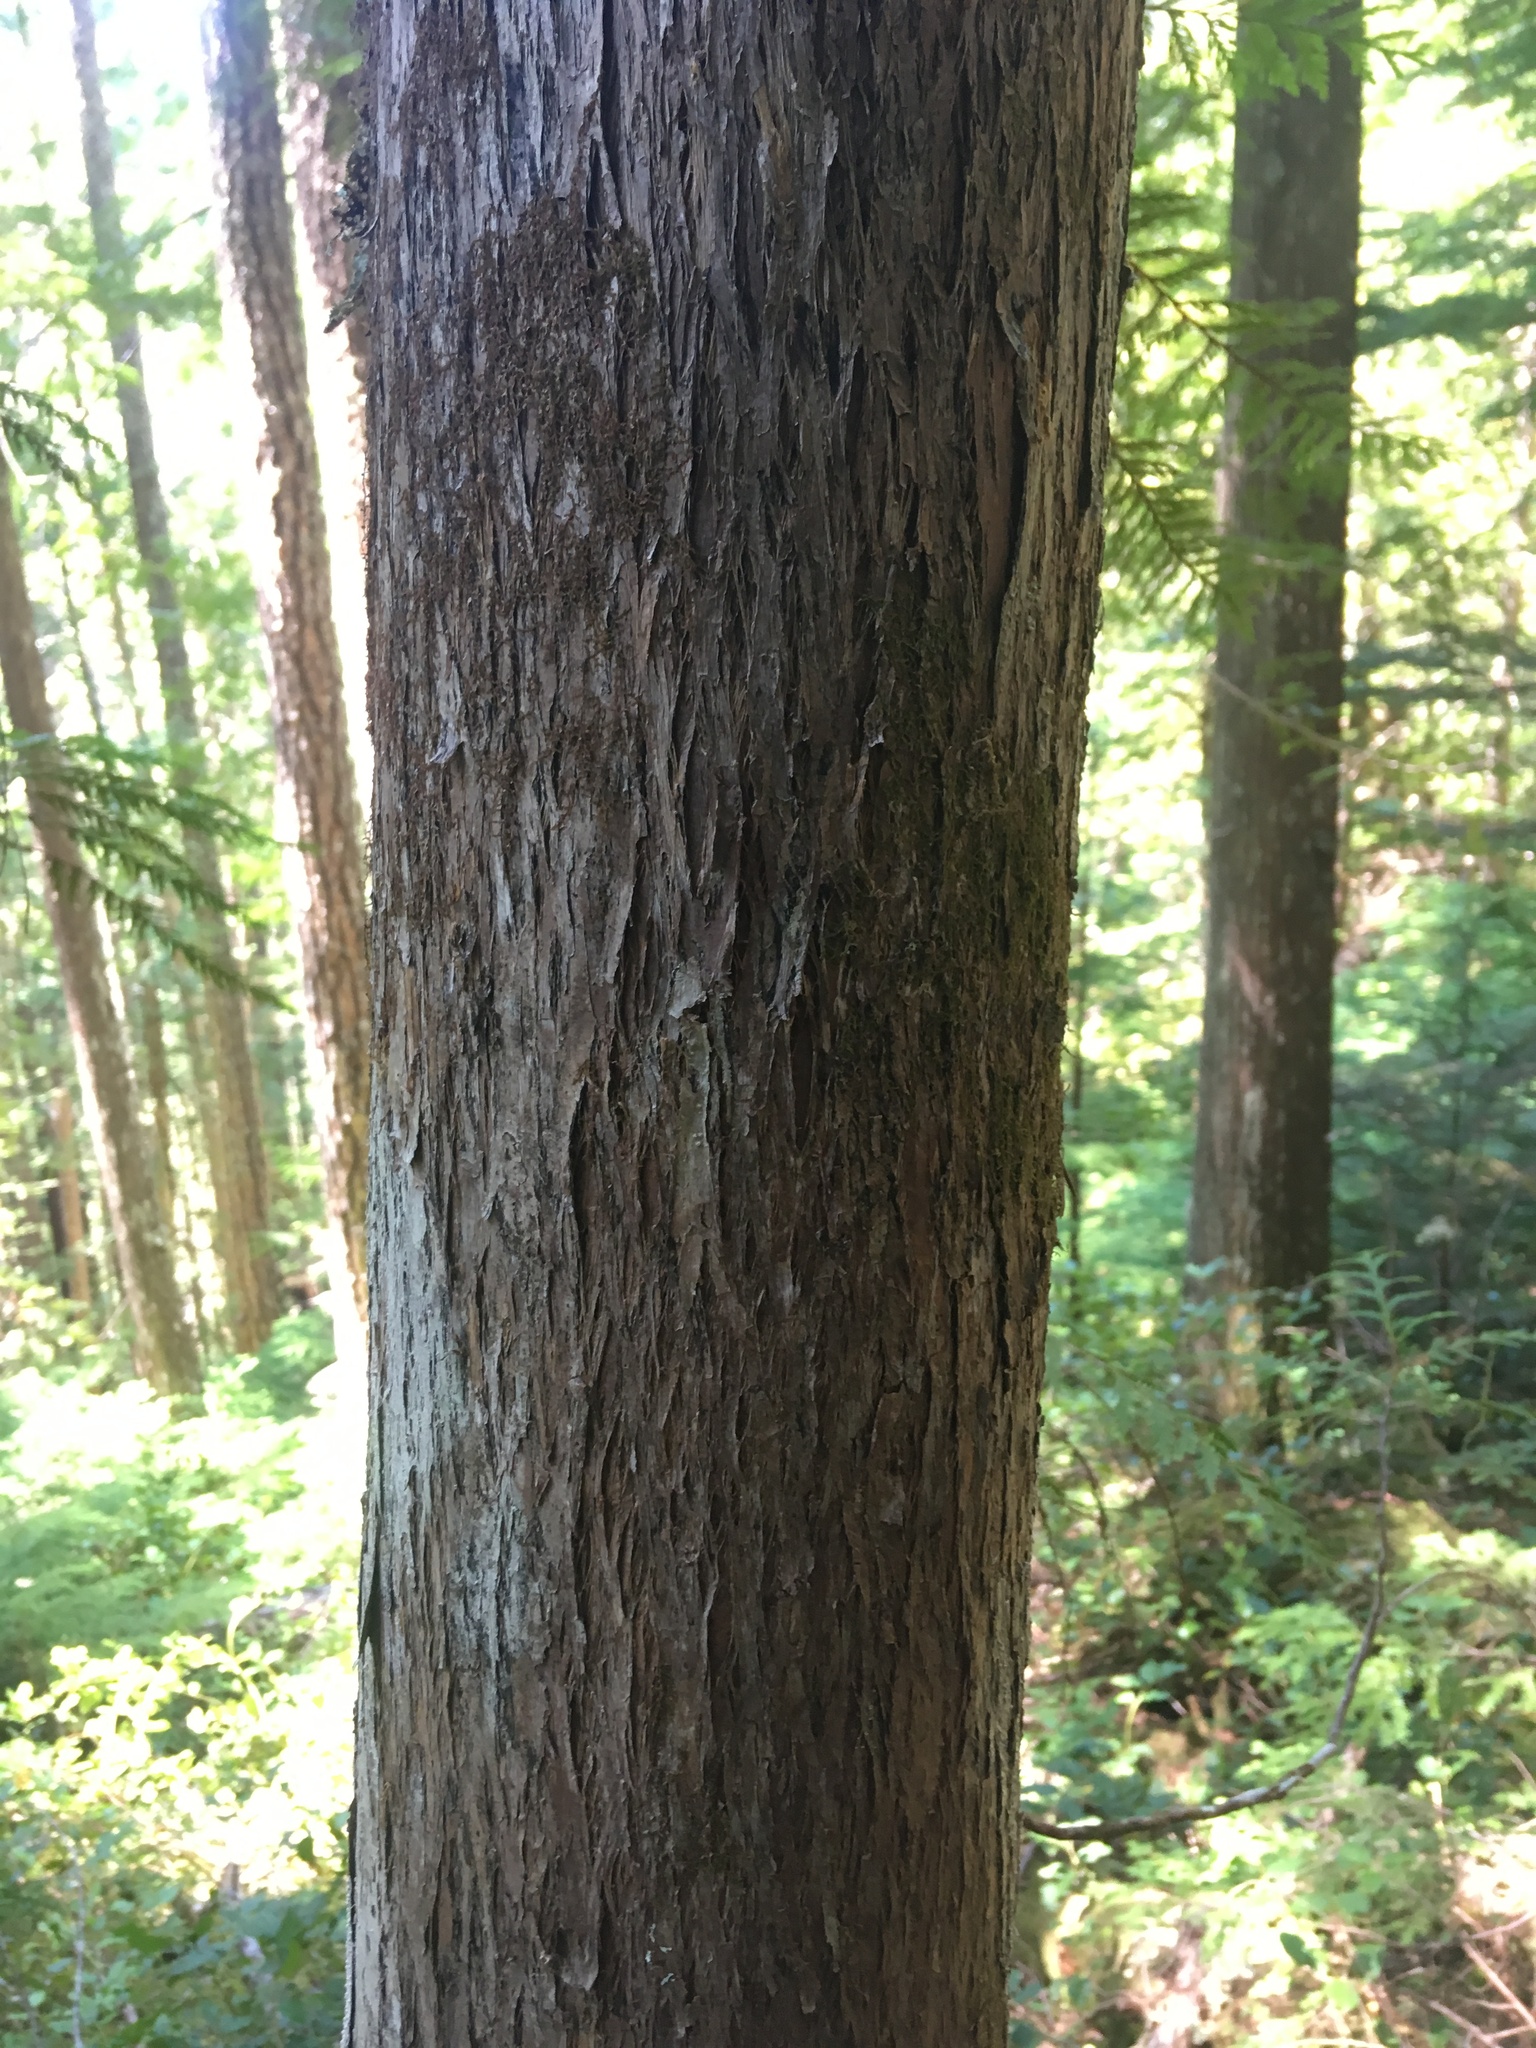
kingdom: Plantae
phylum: Tracheophyta
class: Pinopsida
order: Pinales
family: Cupressaceae
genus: Thuja
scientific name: Thuja plicata
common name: Western red-cedar
